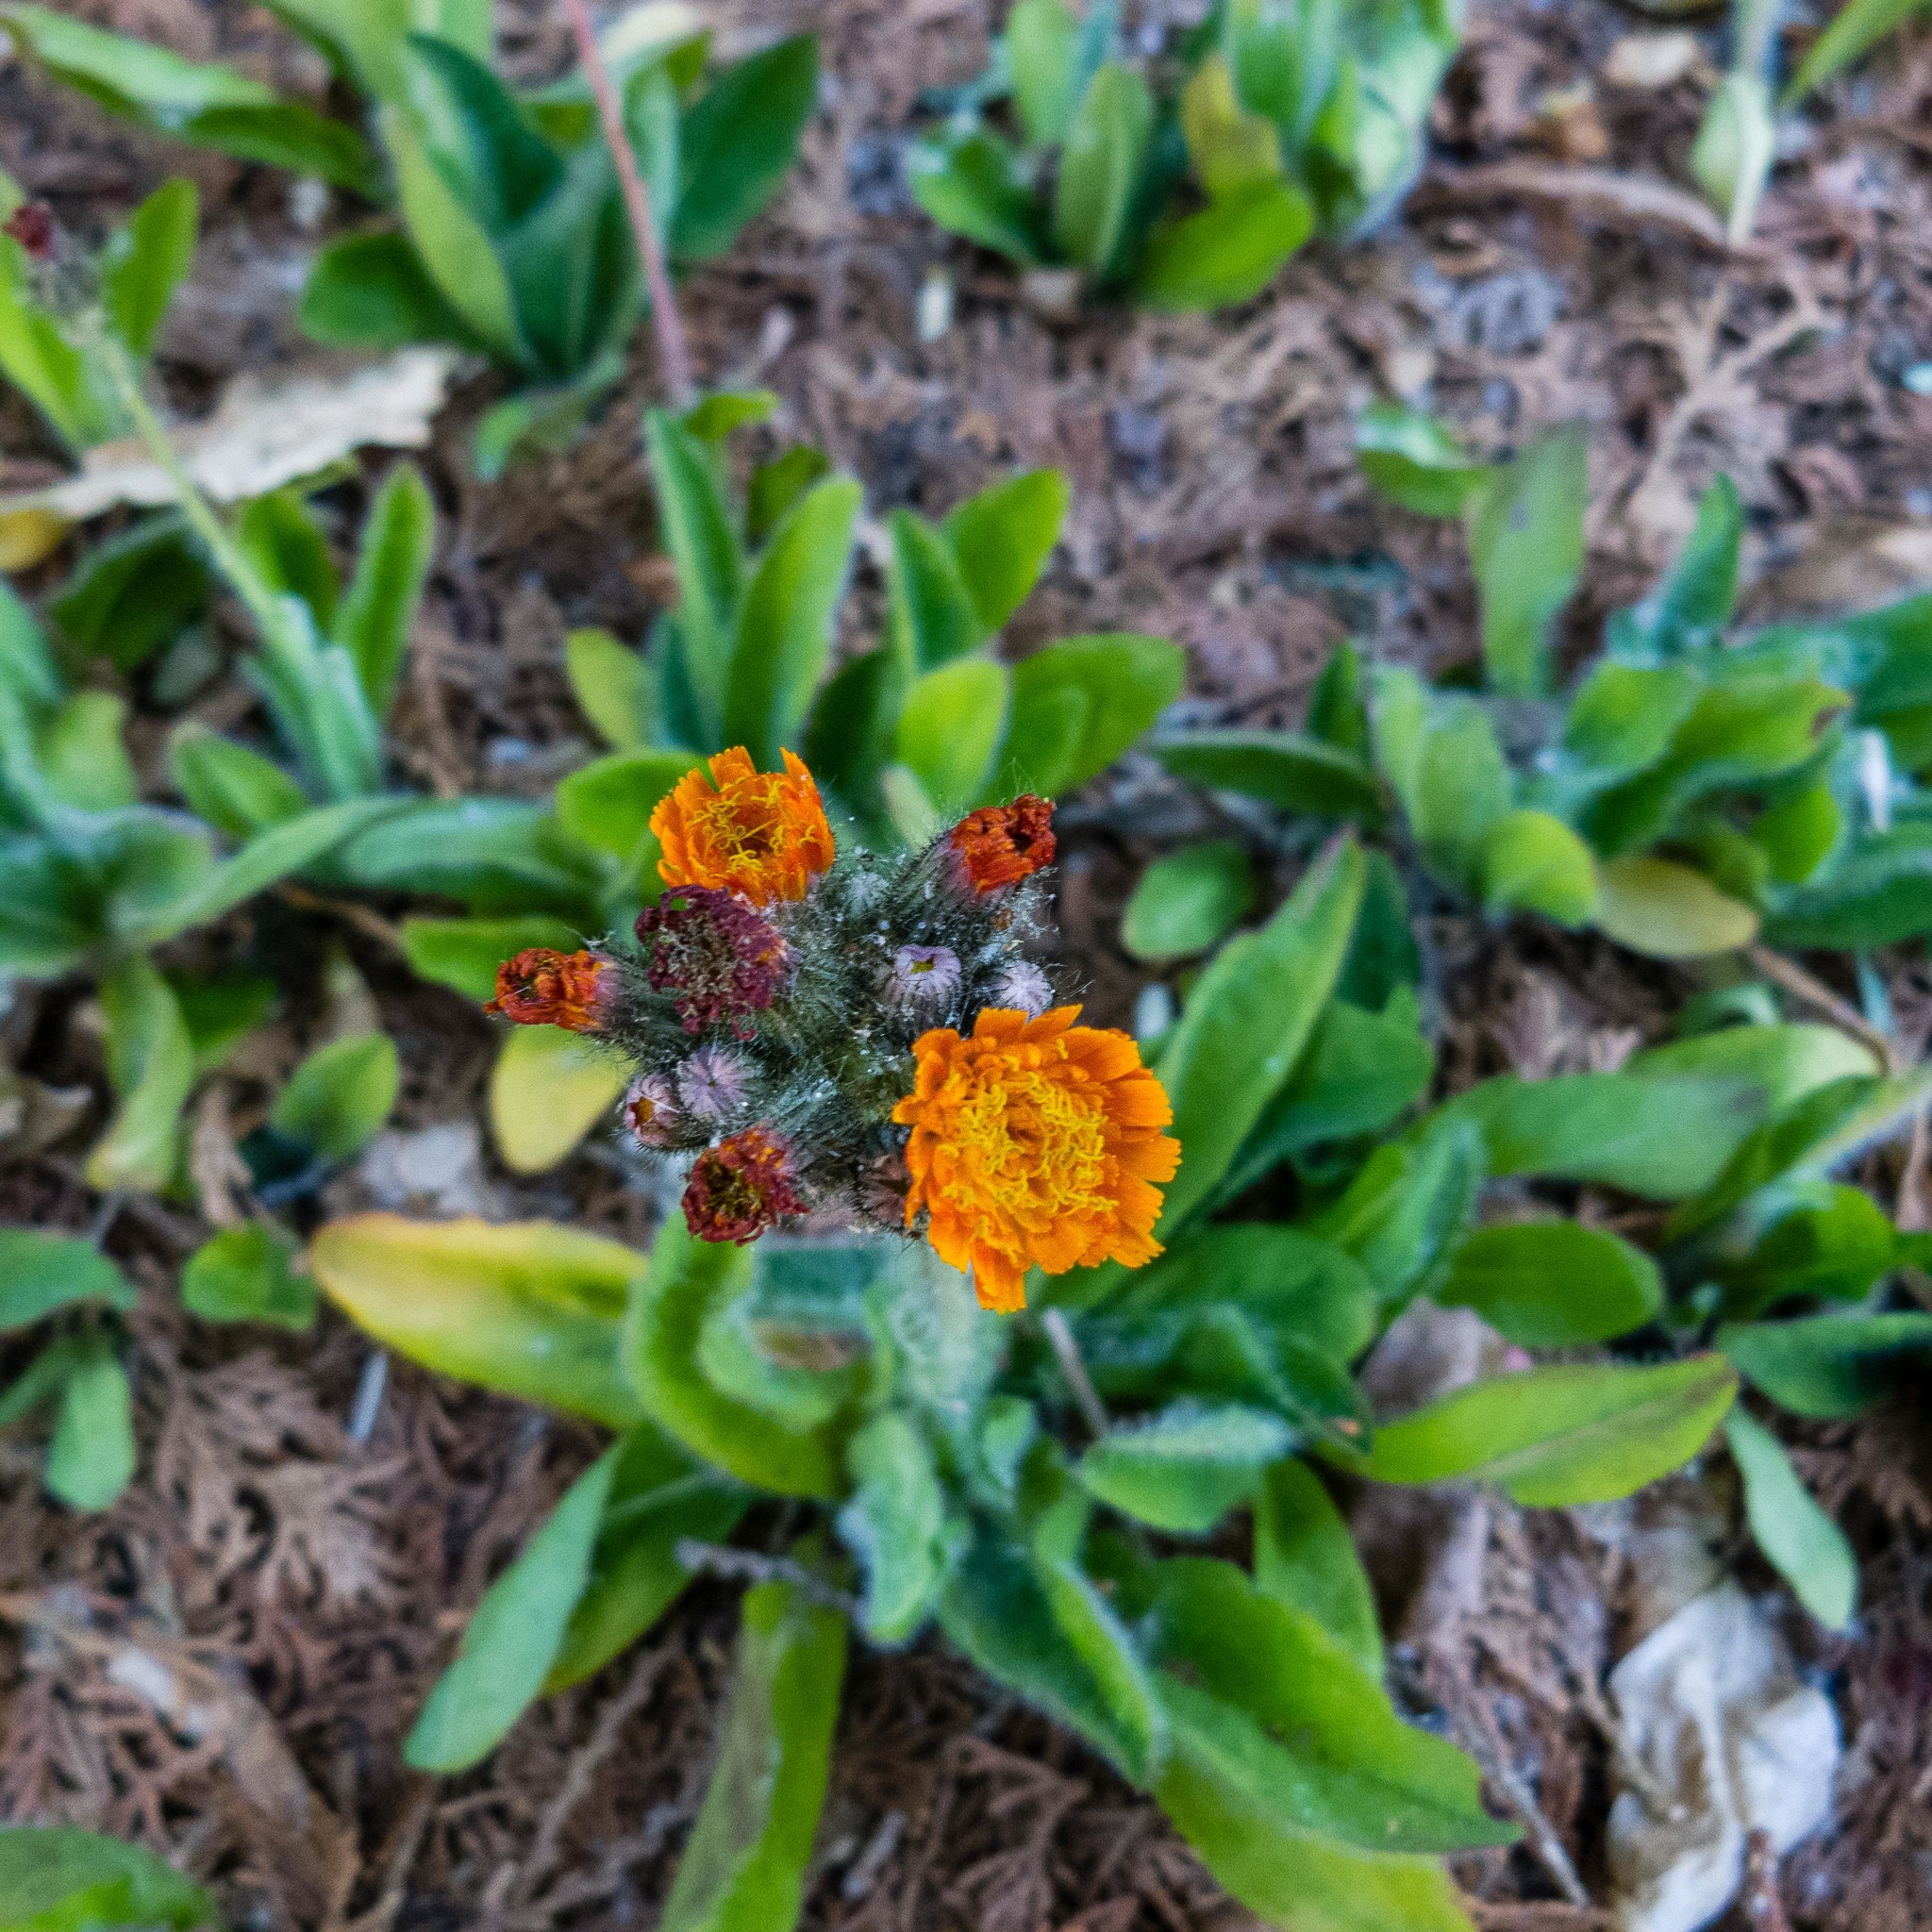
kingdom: Plantae
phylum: Tracheophyta
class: Magnoliopsida
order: Asterales
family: Asteraceae
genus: Pilosella
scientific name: Pilosella aurantiaca
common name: Fox-and-cubs
